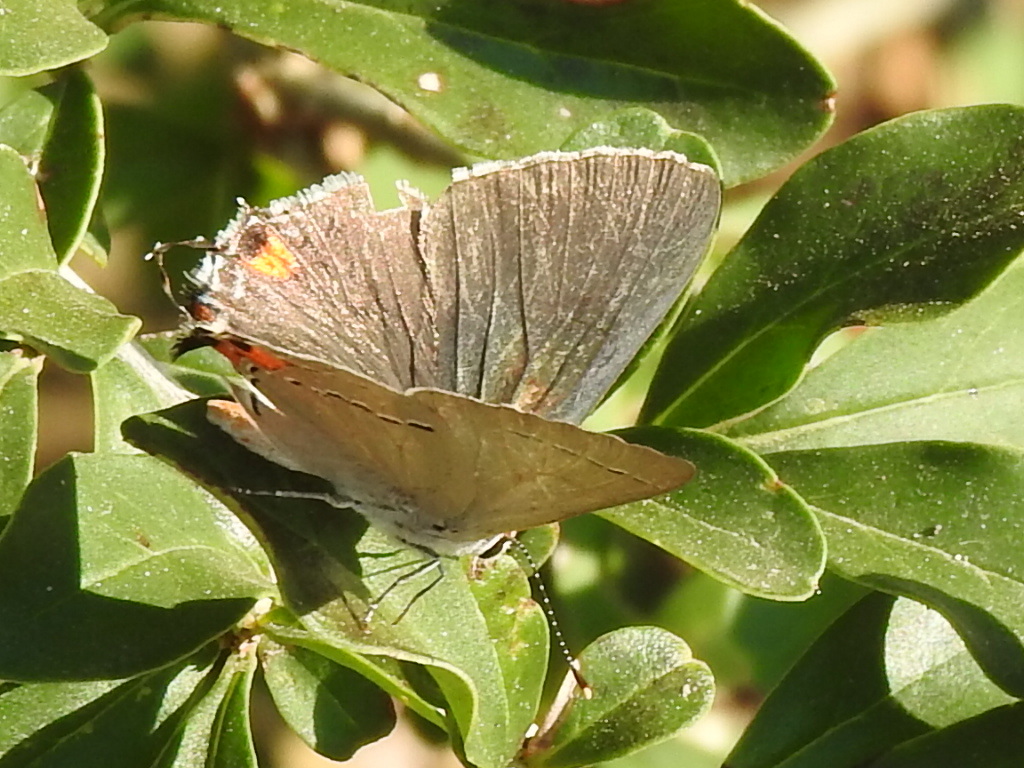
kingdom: Animalia
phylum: Arthropoda
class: Insecta
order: Lepidoptera
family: Lycaenidae
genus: Strymon
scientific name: Strymon melinus
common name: Gray hairstreak
